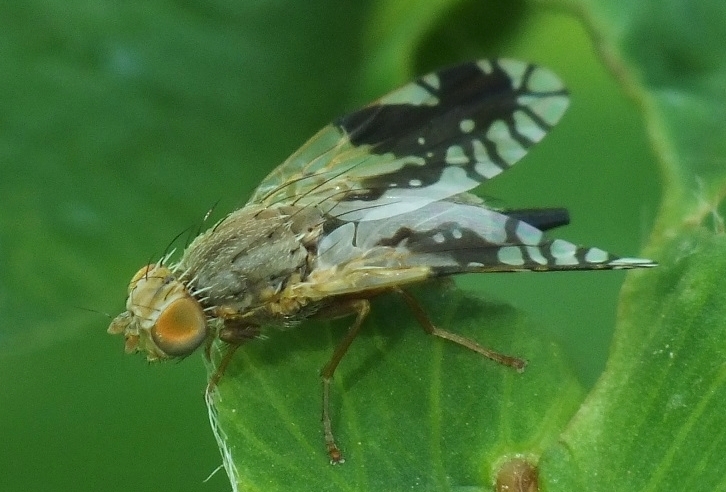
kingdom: Animalia
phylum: Arthropoda
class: Insecta
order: Diptera
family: Tephritidae
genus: Tephritis
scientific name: Tephritis hurvitzi
